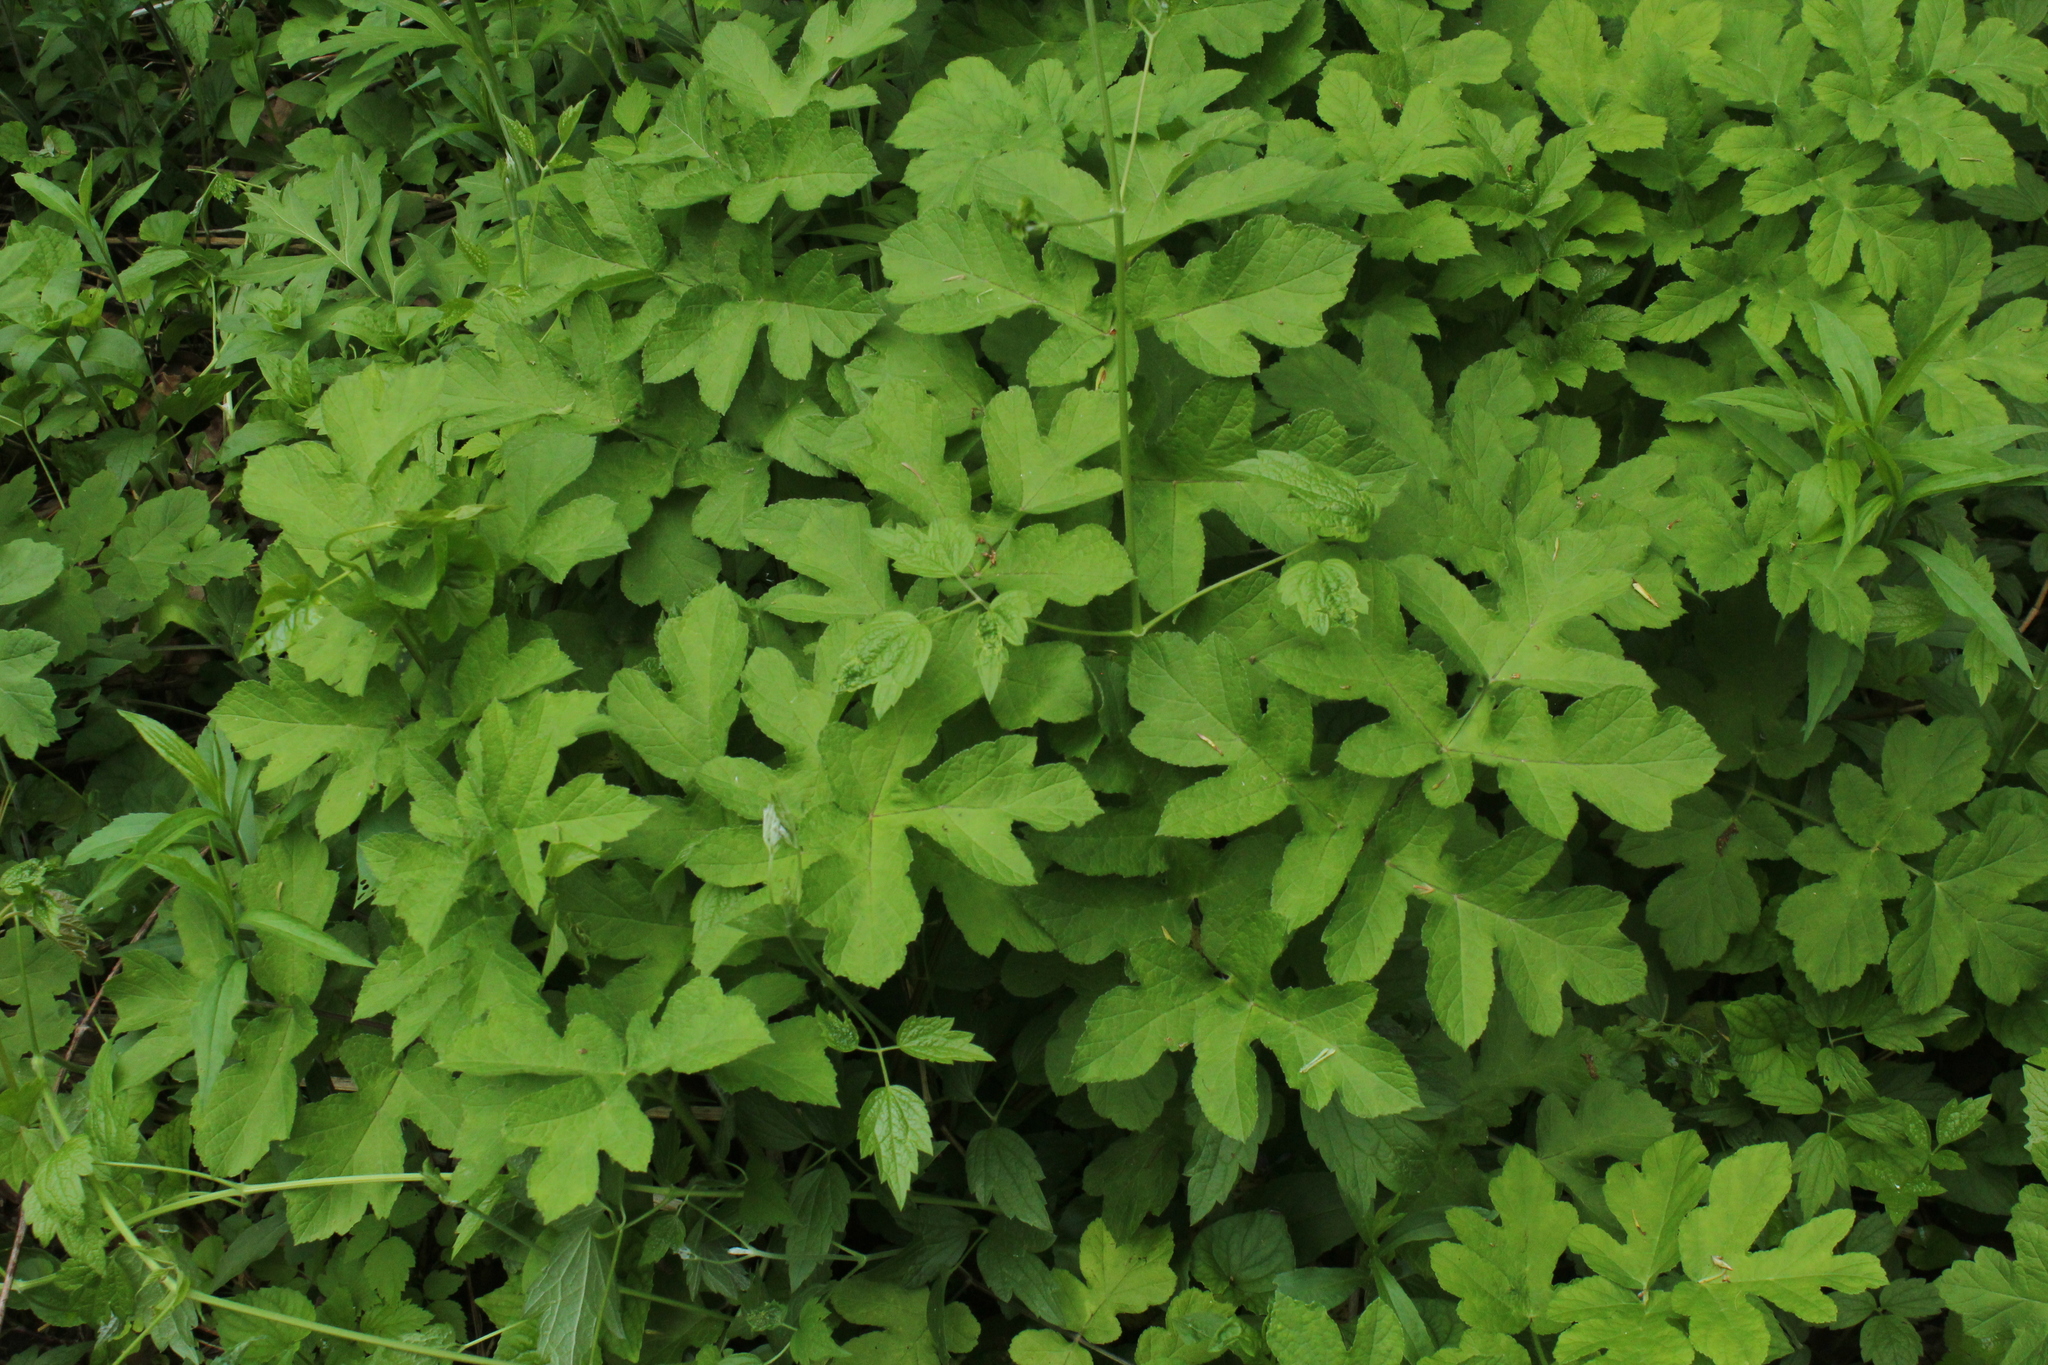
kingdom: Plantae
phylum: Tracheophyta
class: Magnoliopsida
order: Apiales
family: Apiaceae
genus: Heracleum
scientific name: Heracleum sphondylium
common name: Hogweed
